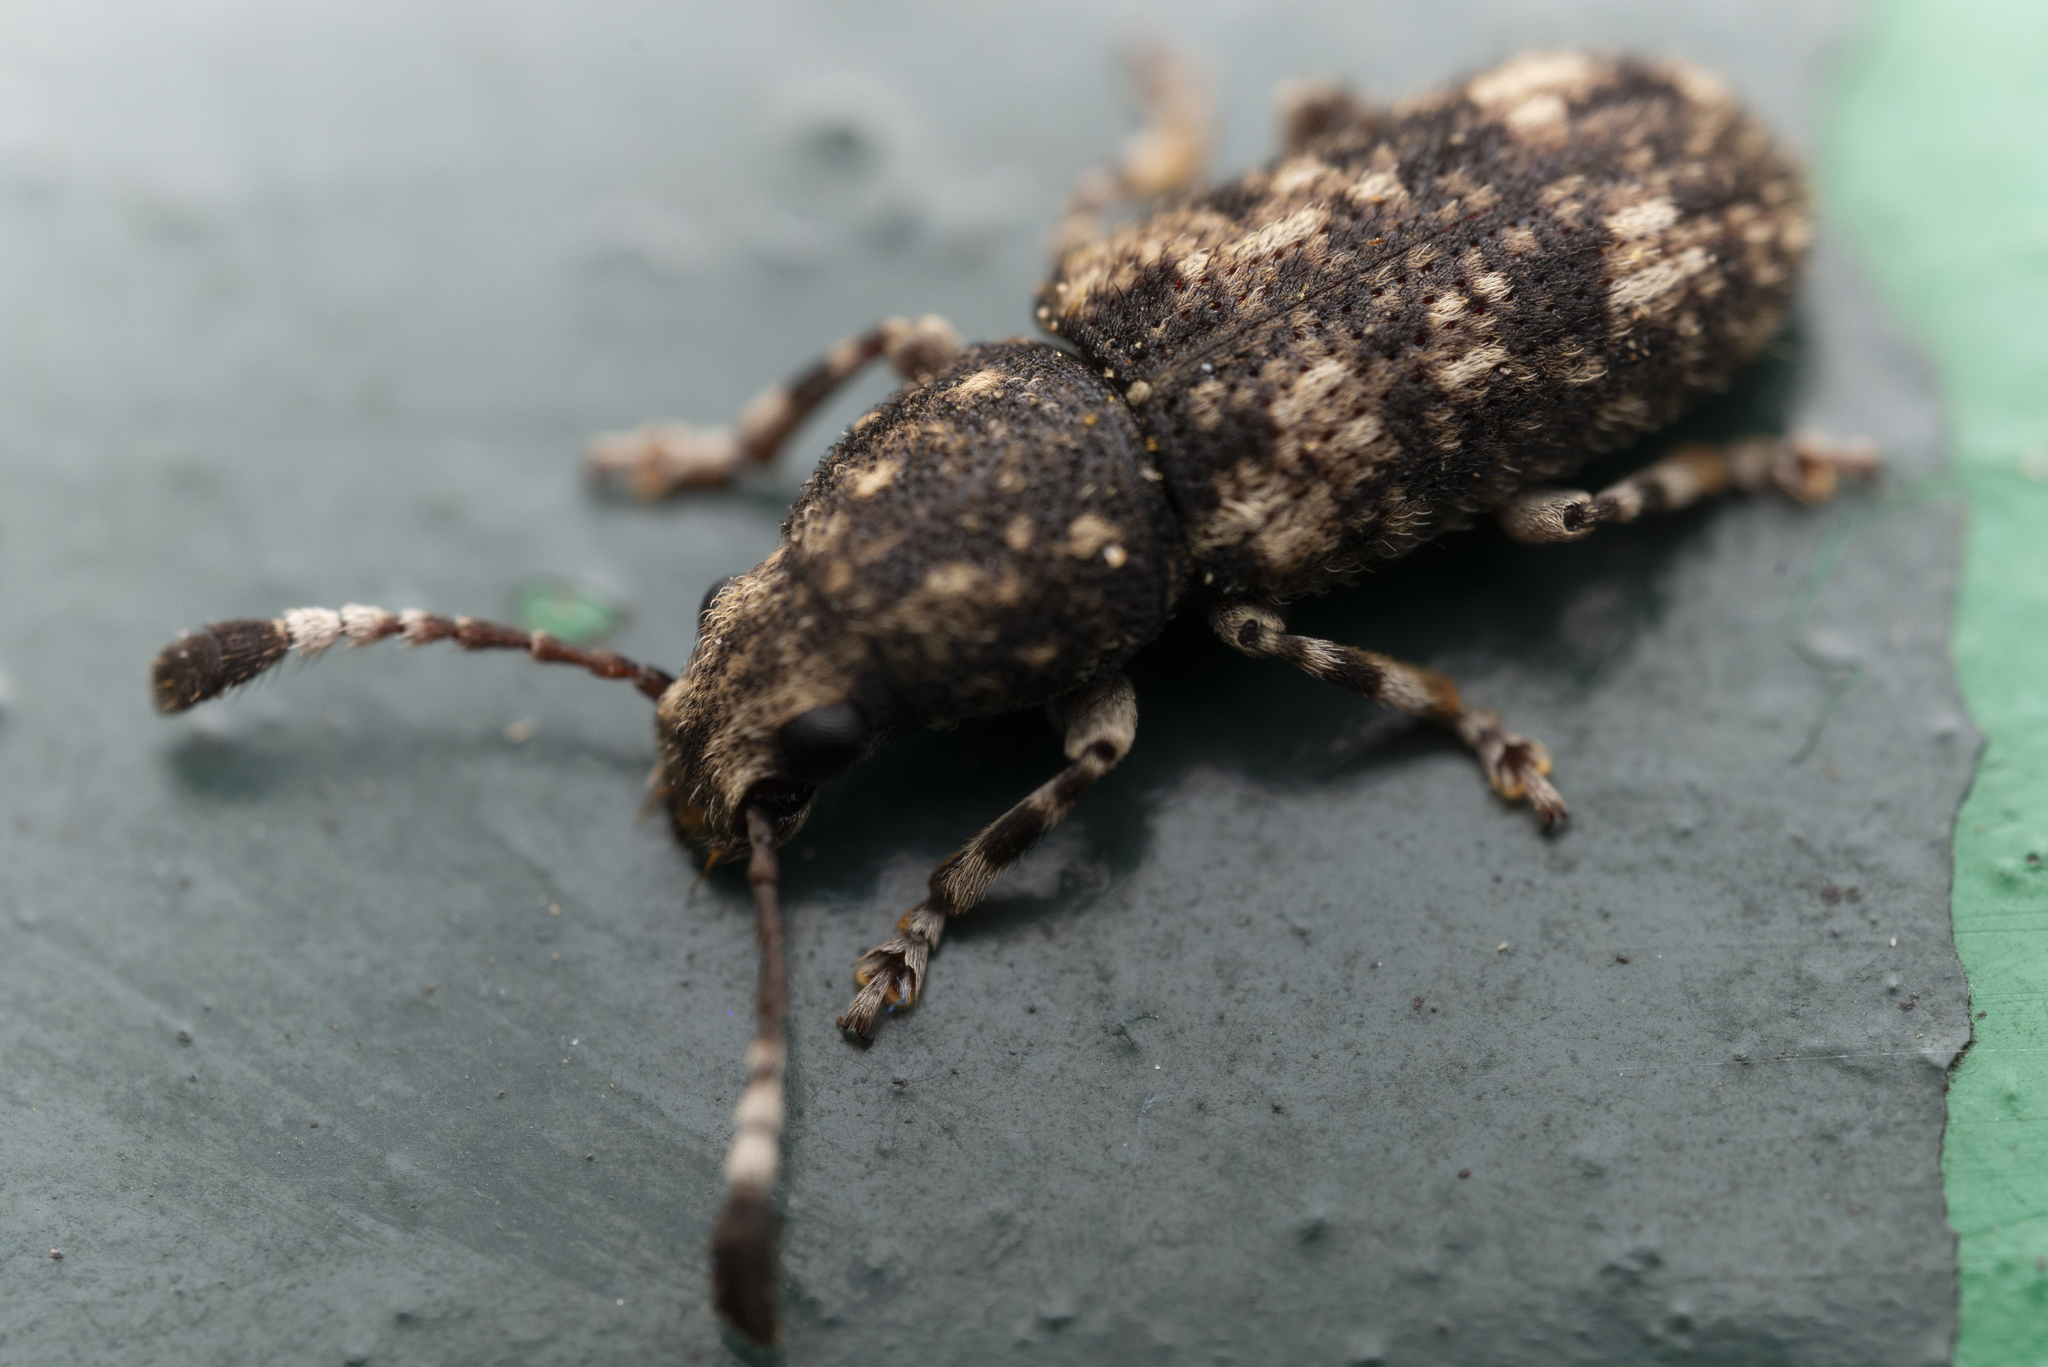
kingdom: Animalia
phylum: Arthropoda
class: Insecta
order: Coleoptera
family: Anthribidae
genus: Eucorynus
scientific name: Eucorynus crassicornis
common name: Fungus weevil
